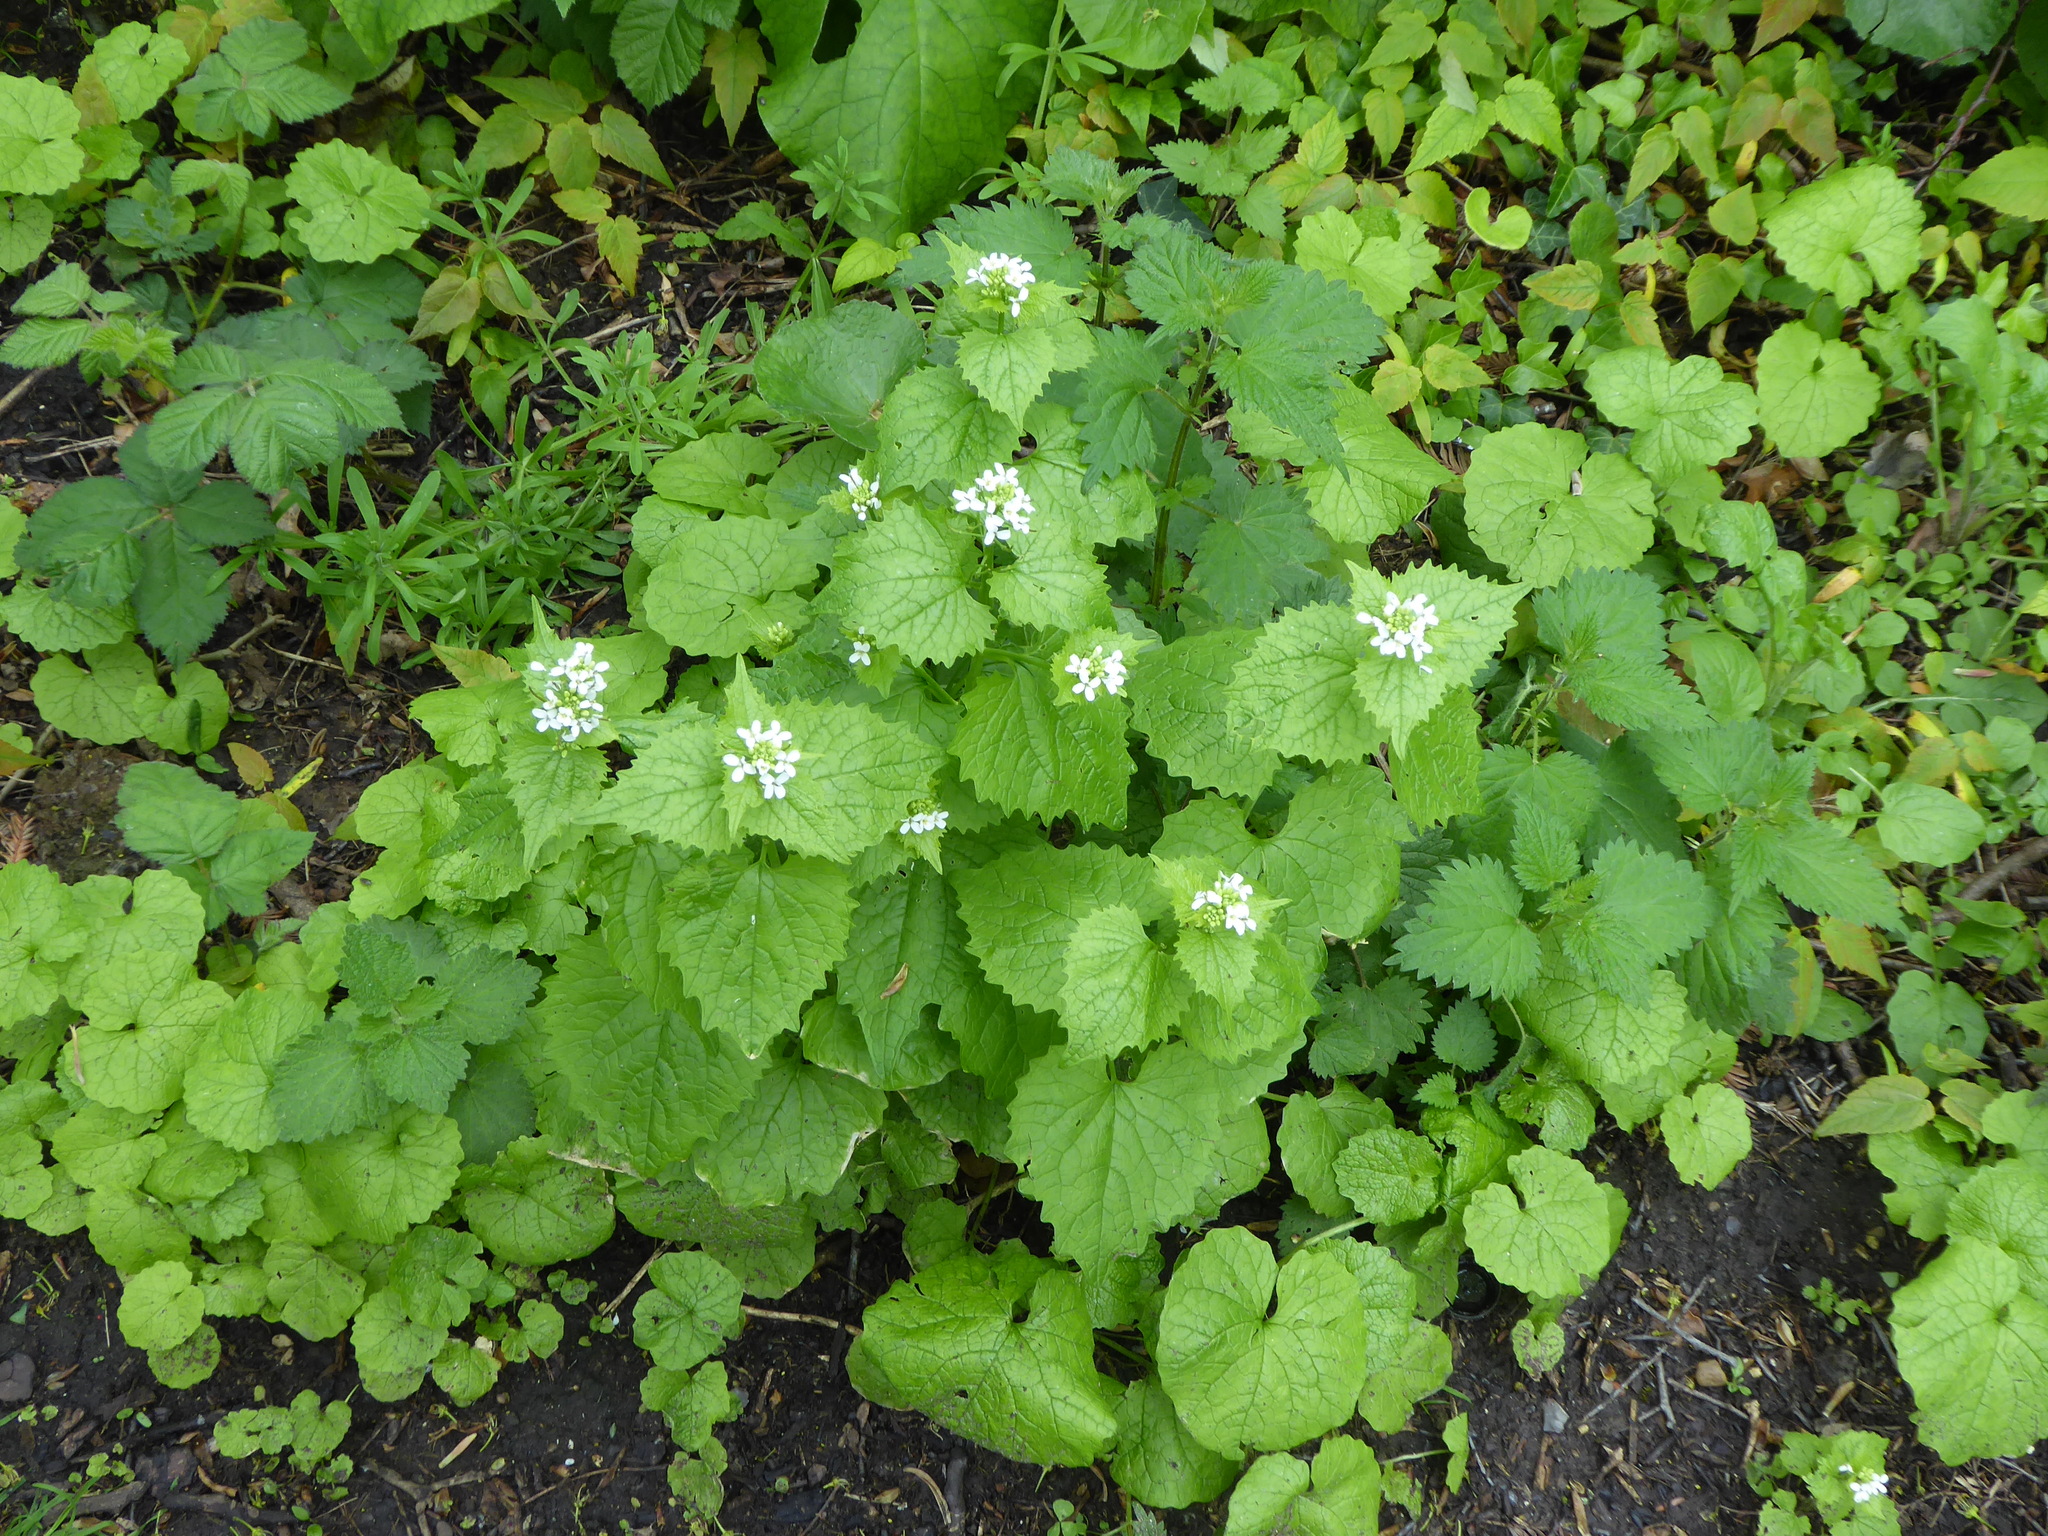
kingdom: Plantae
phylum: Tracheophyta
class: Magnoliopsida
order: Brassicales
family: Brassicaceae
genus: Alliaria
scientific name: Alliaria petiolata
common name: Garlic mustard
